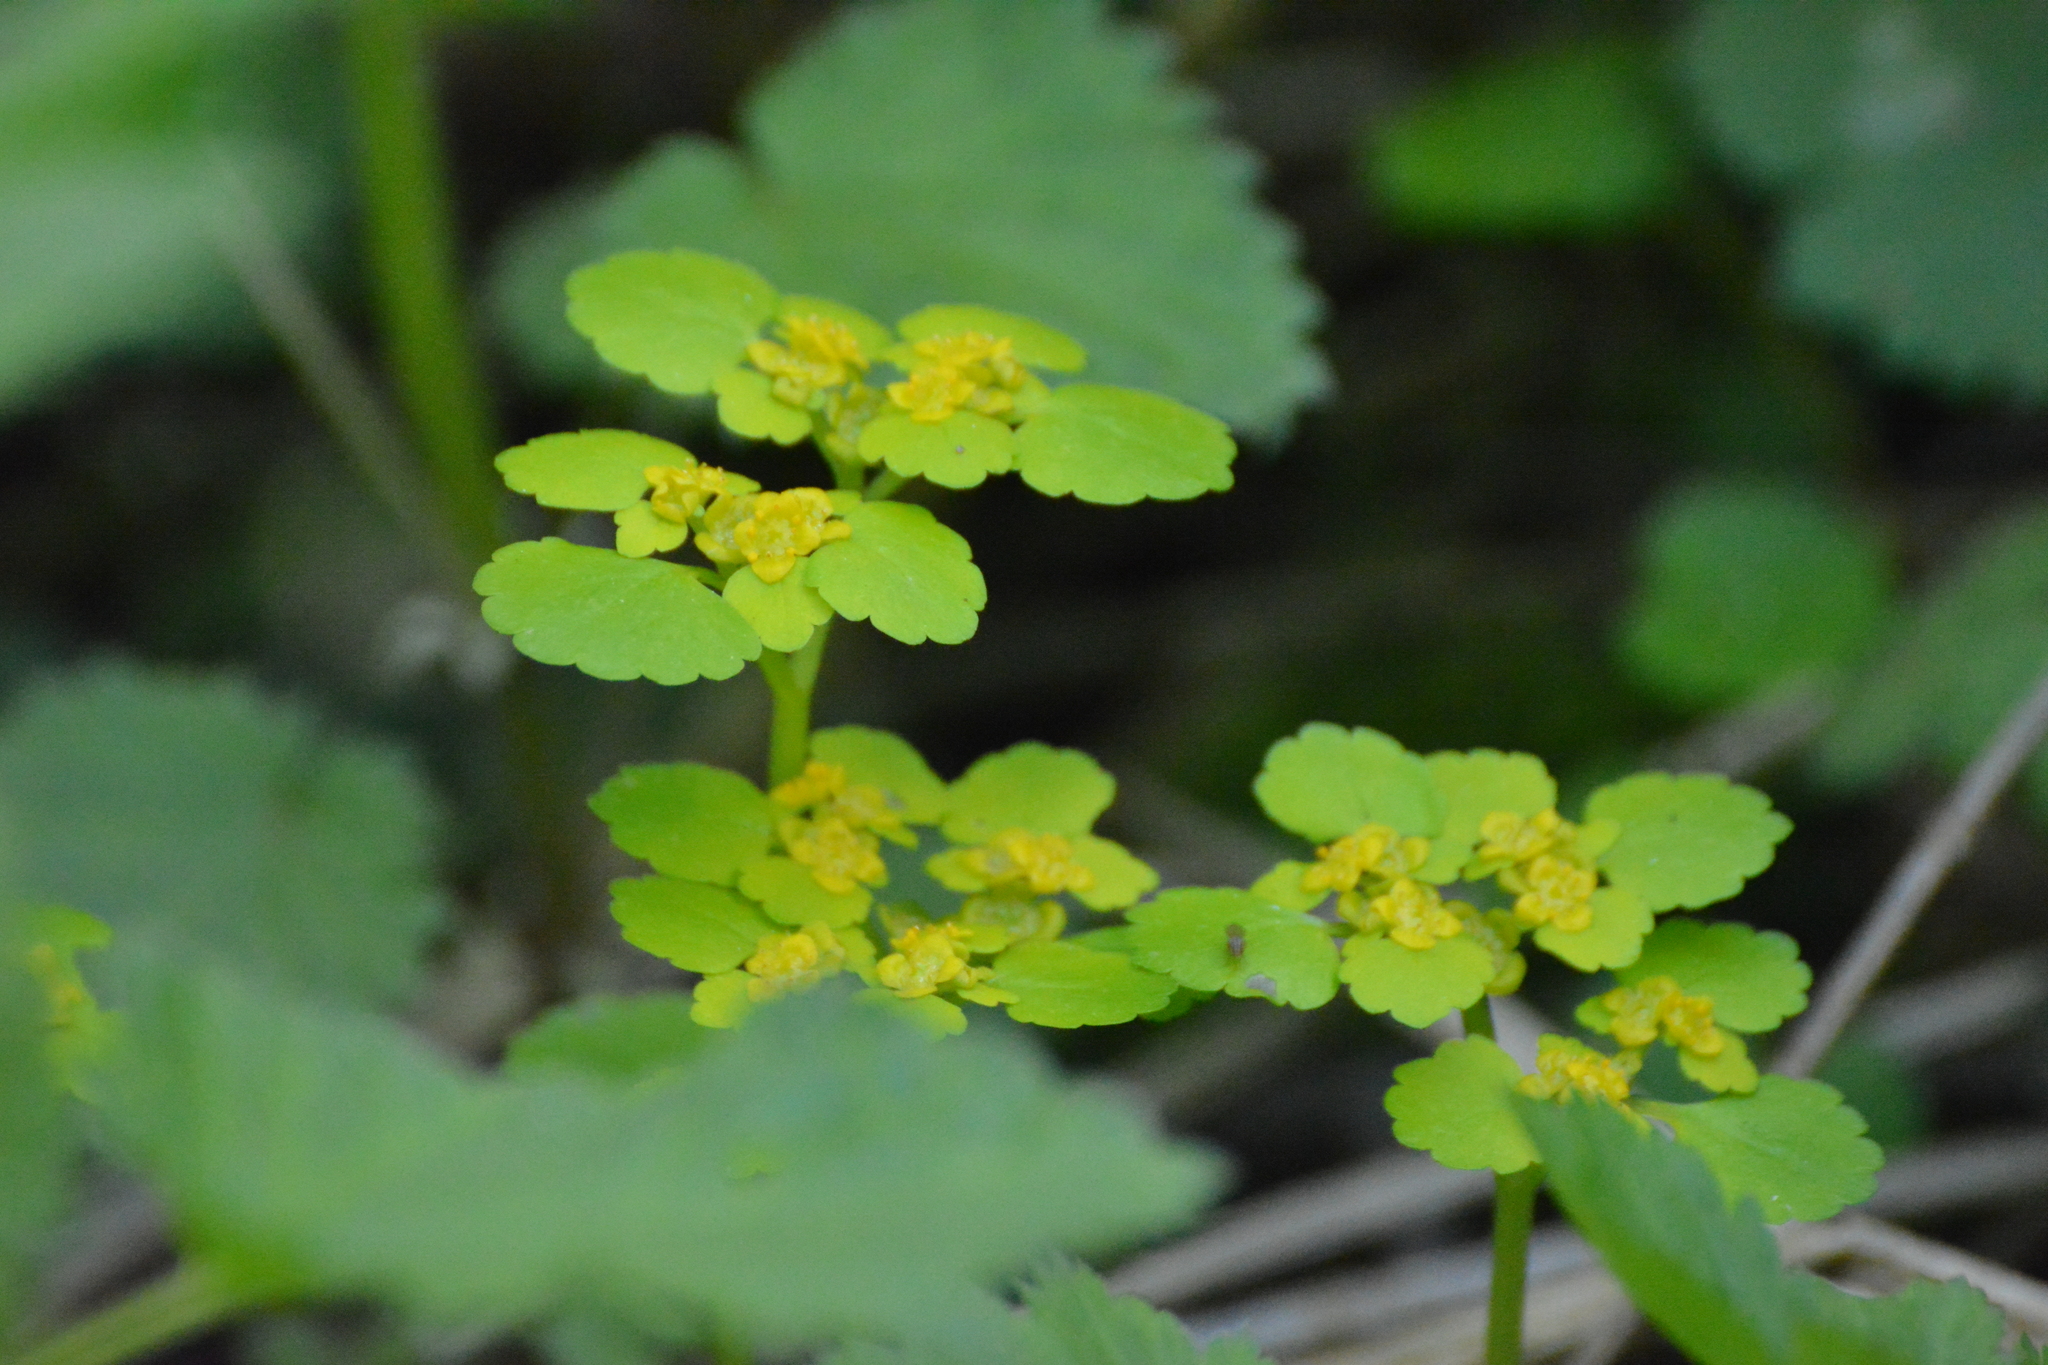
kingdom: Plantae
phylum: Tracheophyta
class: Magnoliopsida
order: Saxifragales
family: Saxifragaceae
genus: Chrysosplenium
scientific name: Chrysosplenium alternifolium
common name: Alternate-leaved golden-saxifrage
